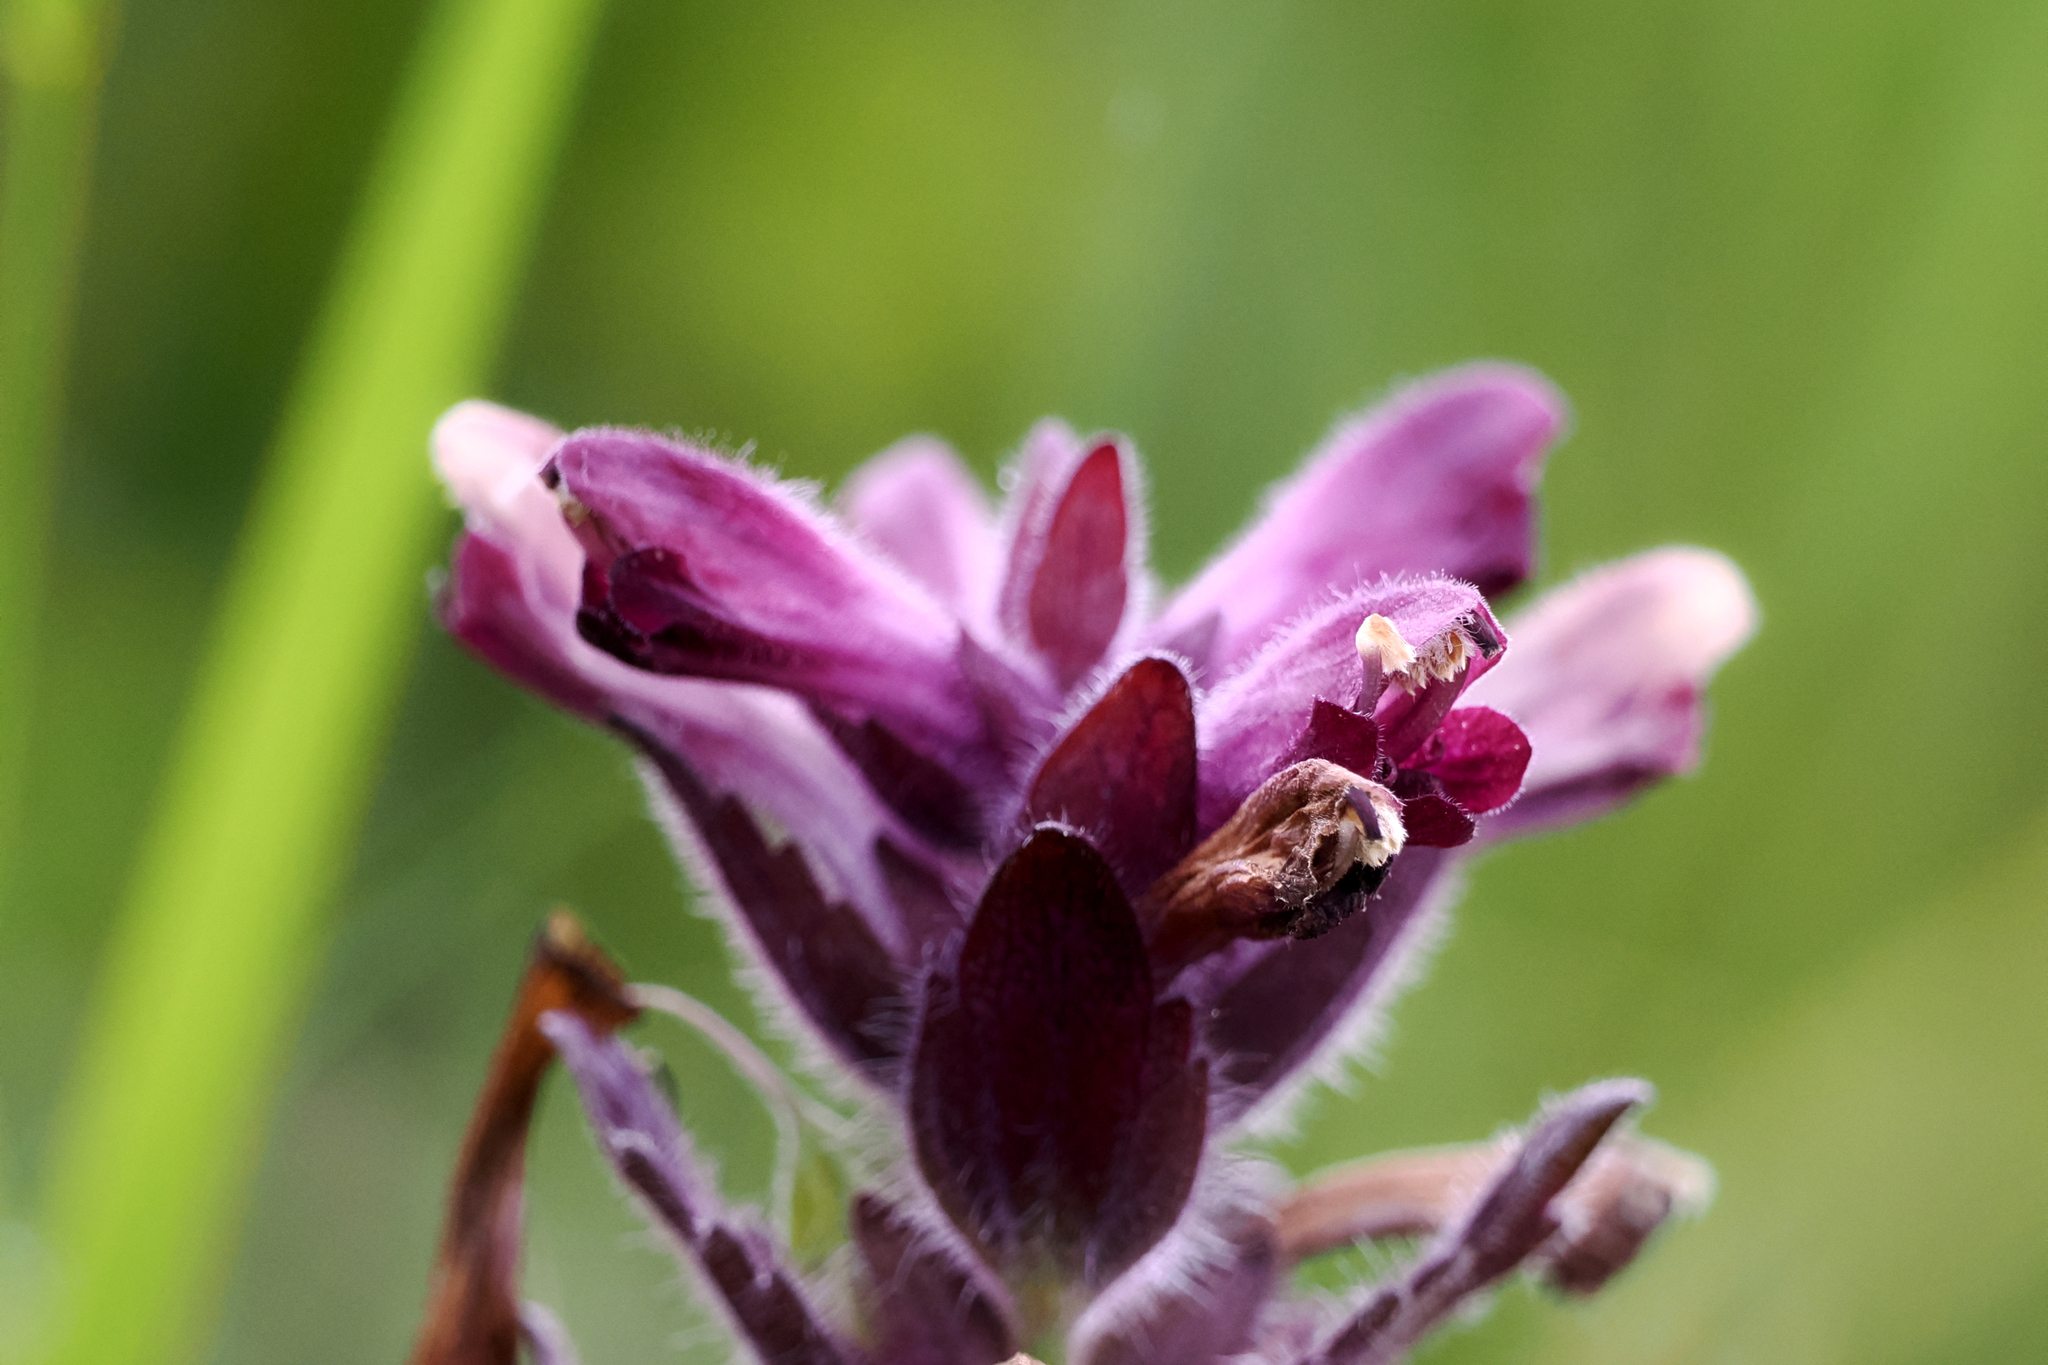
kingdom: Plantae
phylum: Tracheophyta
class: Magnoliopsida
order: Lamiales
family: Orobanchaceae
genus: Bartsia
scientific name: Bartsia alpina
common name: Alpine bartsia
